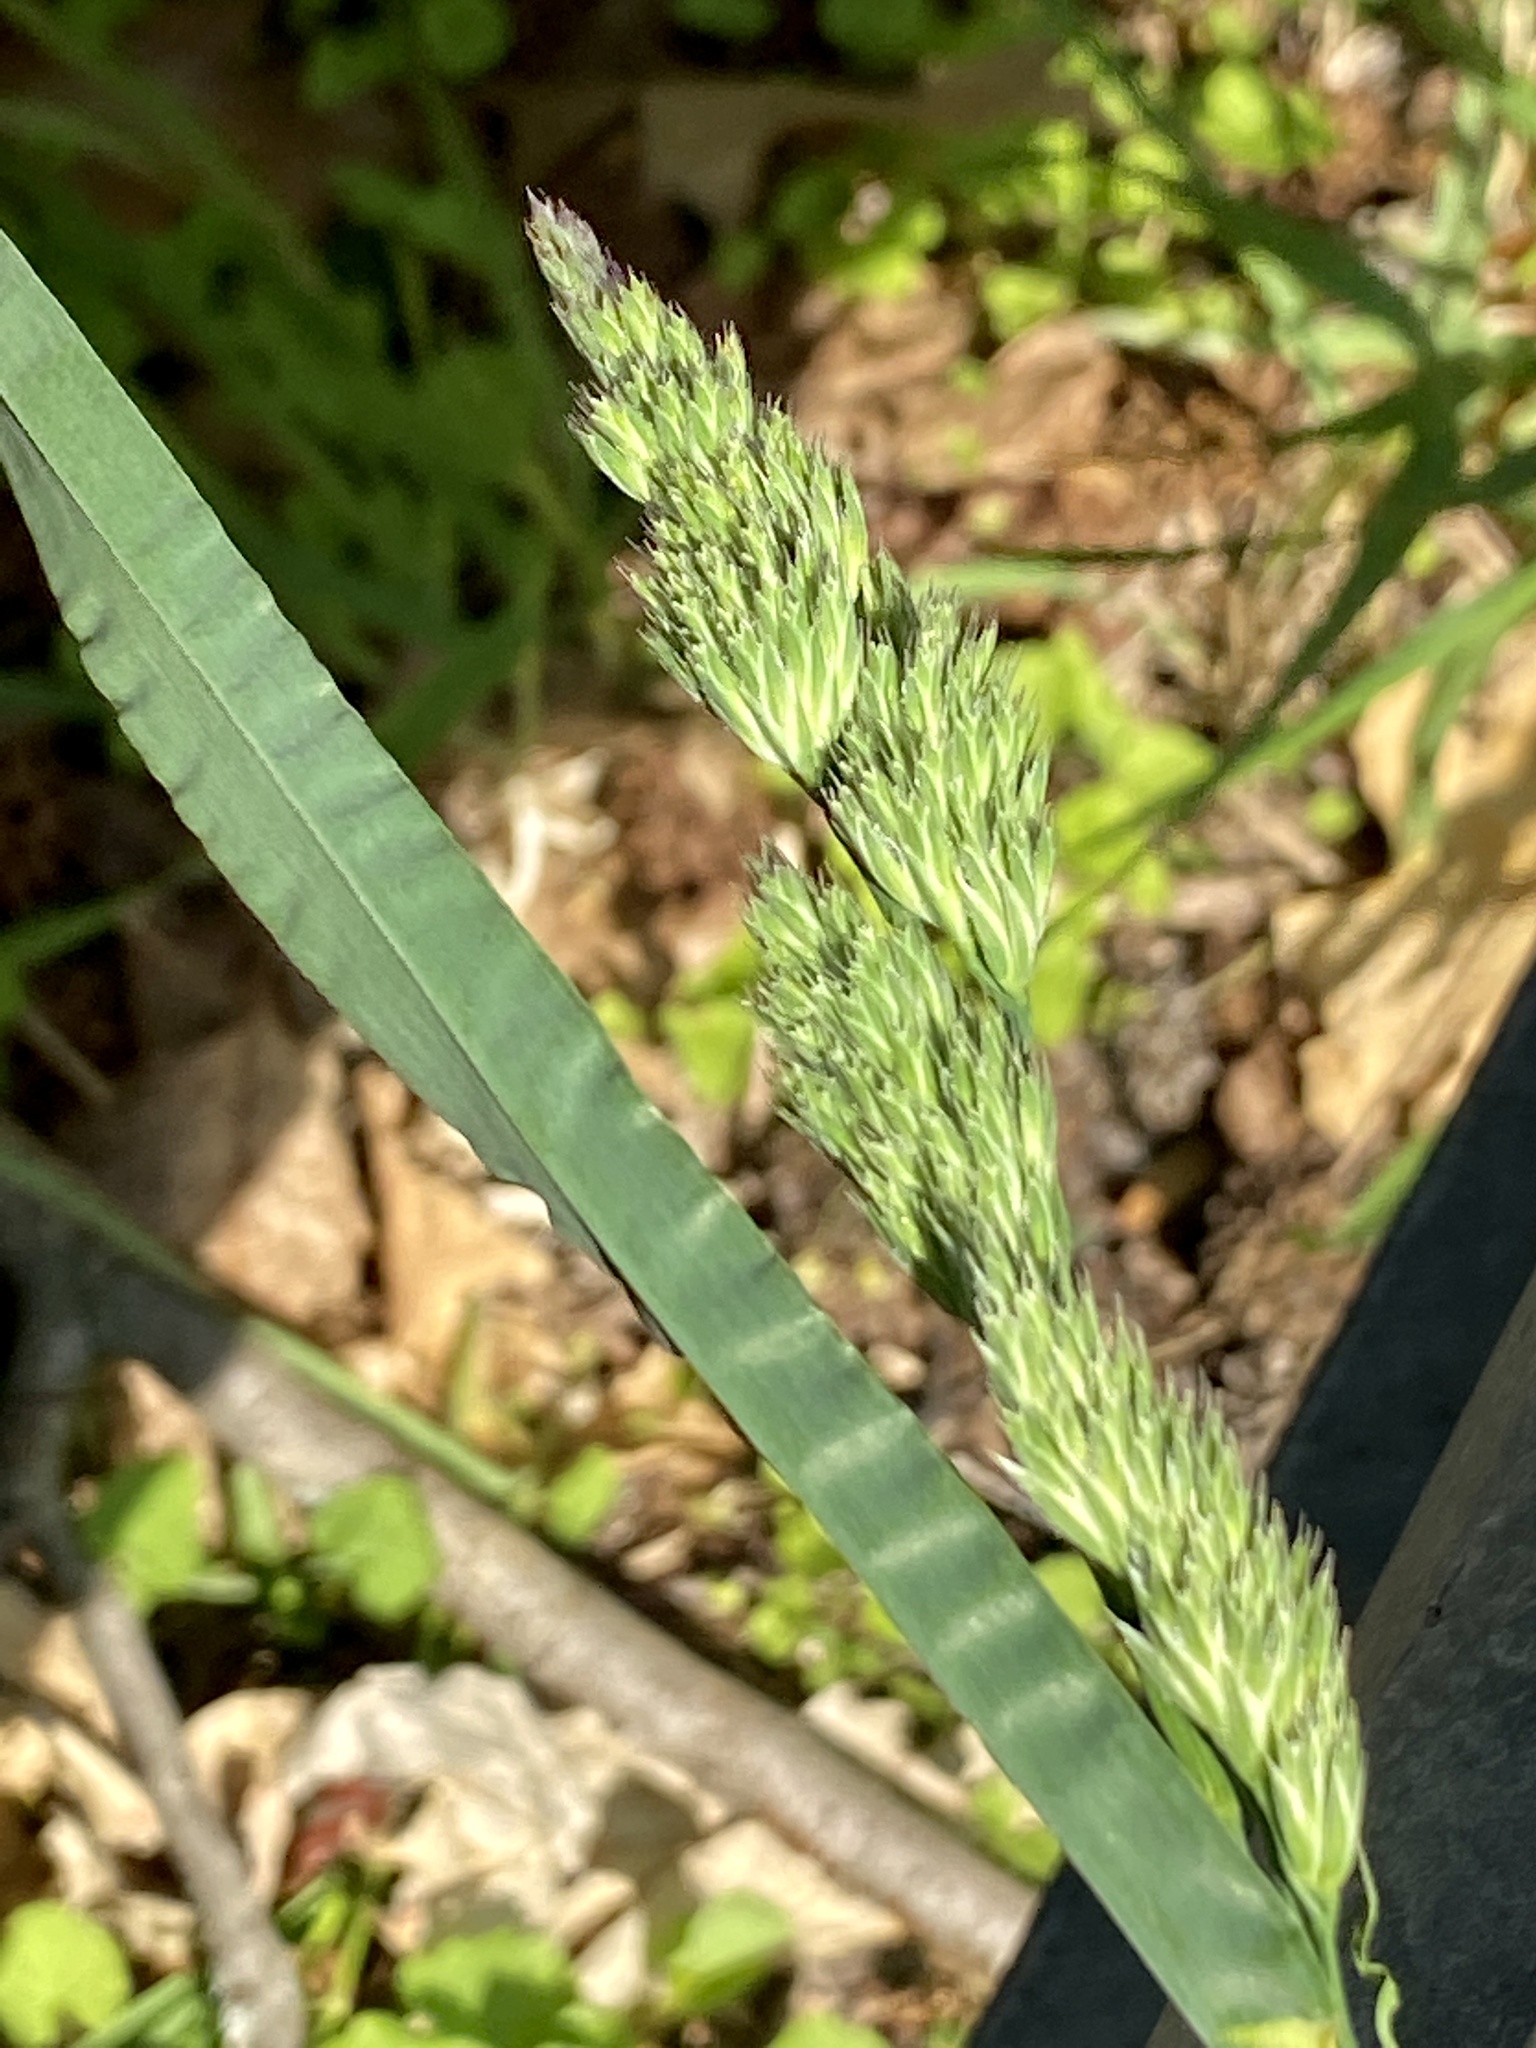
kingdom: Plantae
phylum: Tracheophyta
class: Liliopsida
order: Poales
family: Poaceae
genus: Dactylis
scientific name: Dactylis glomerata
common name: Orchardgrass
